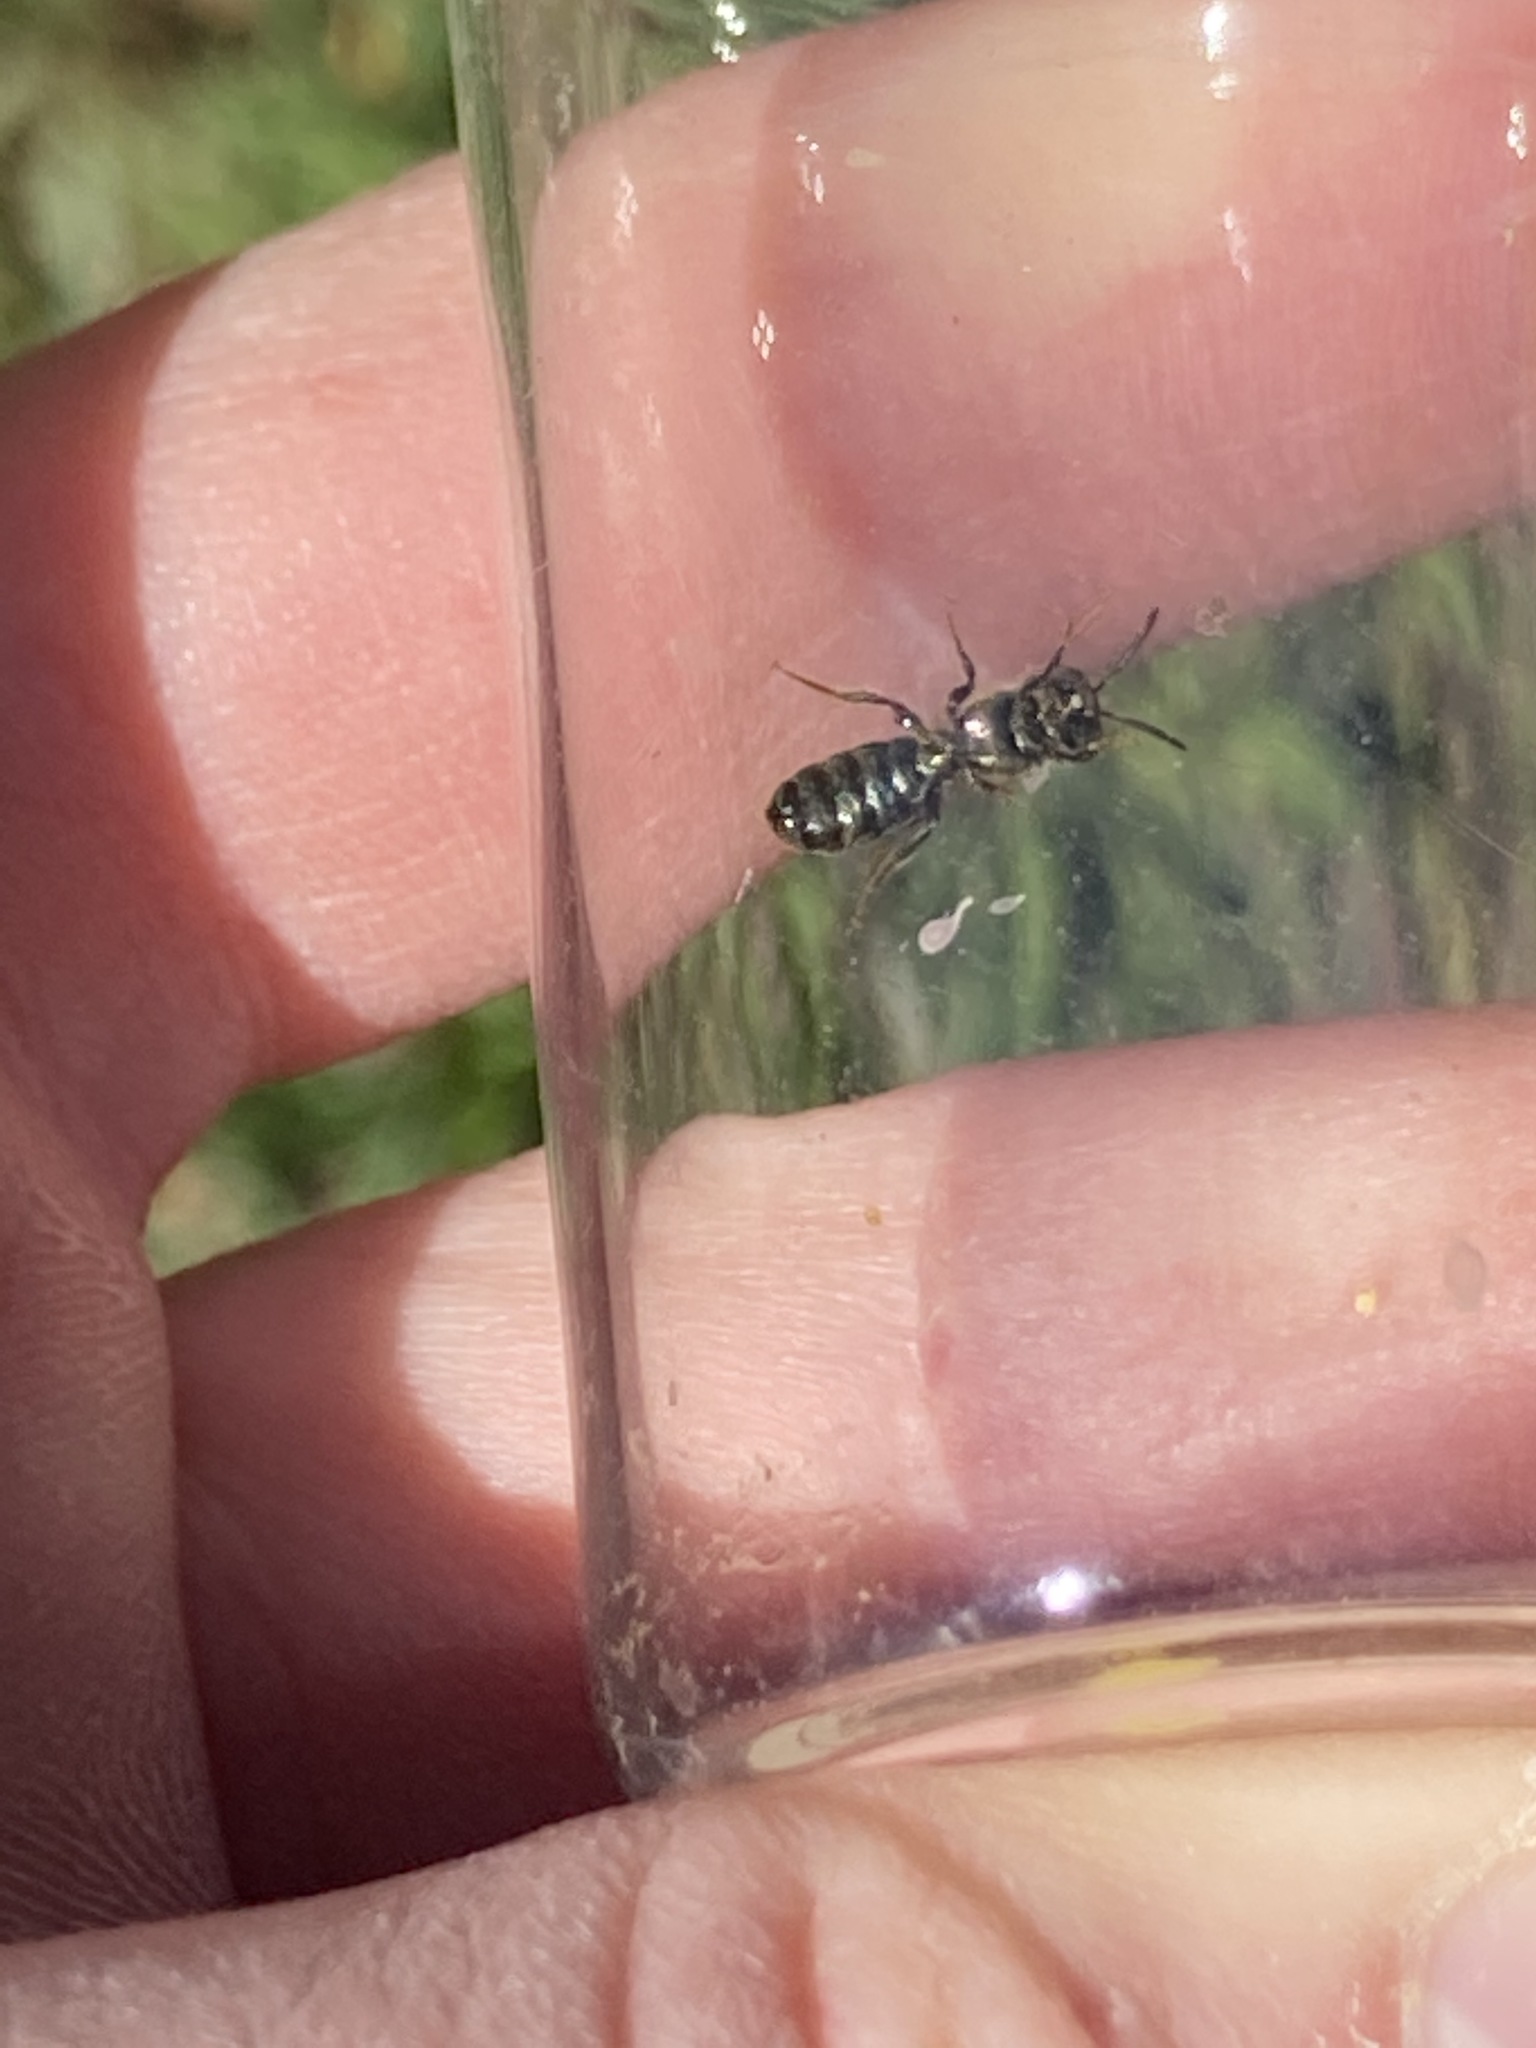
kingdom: Animalia
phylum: Arthropoda
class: Insecta
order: Hymenoptera
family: Apidae
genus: Ceratina
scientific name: Ceratina calcarata
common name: Spurred carpenter bee
